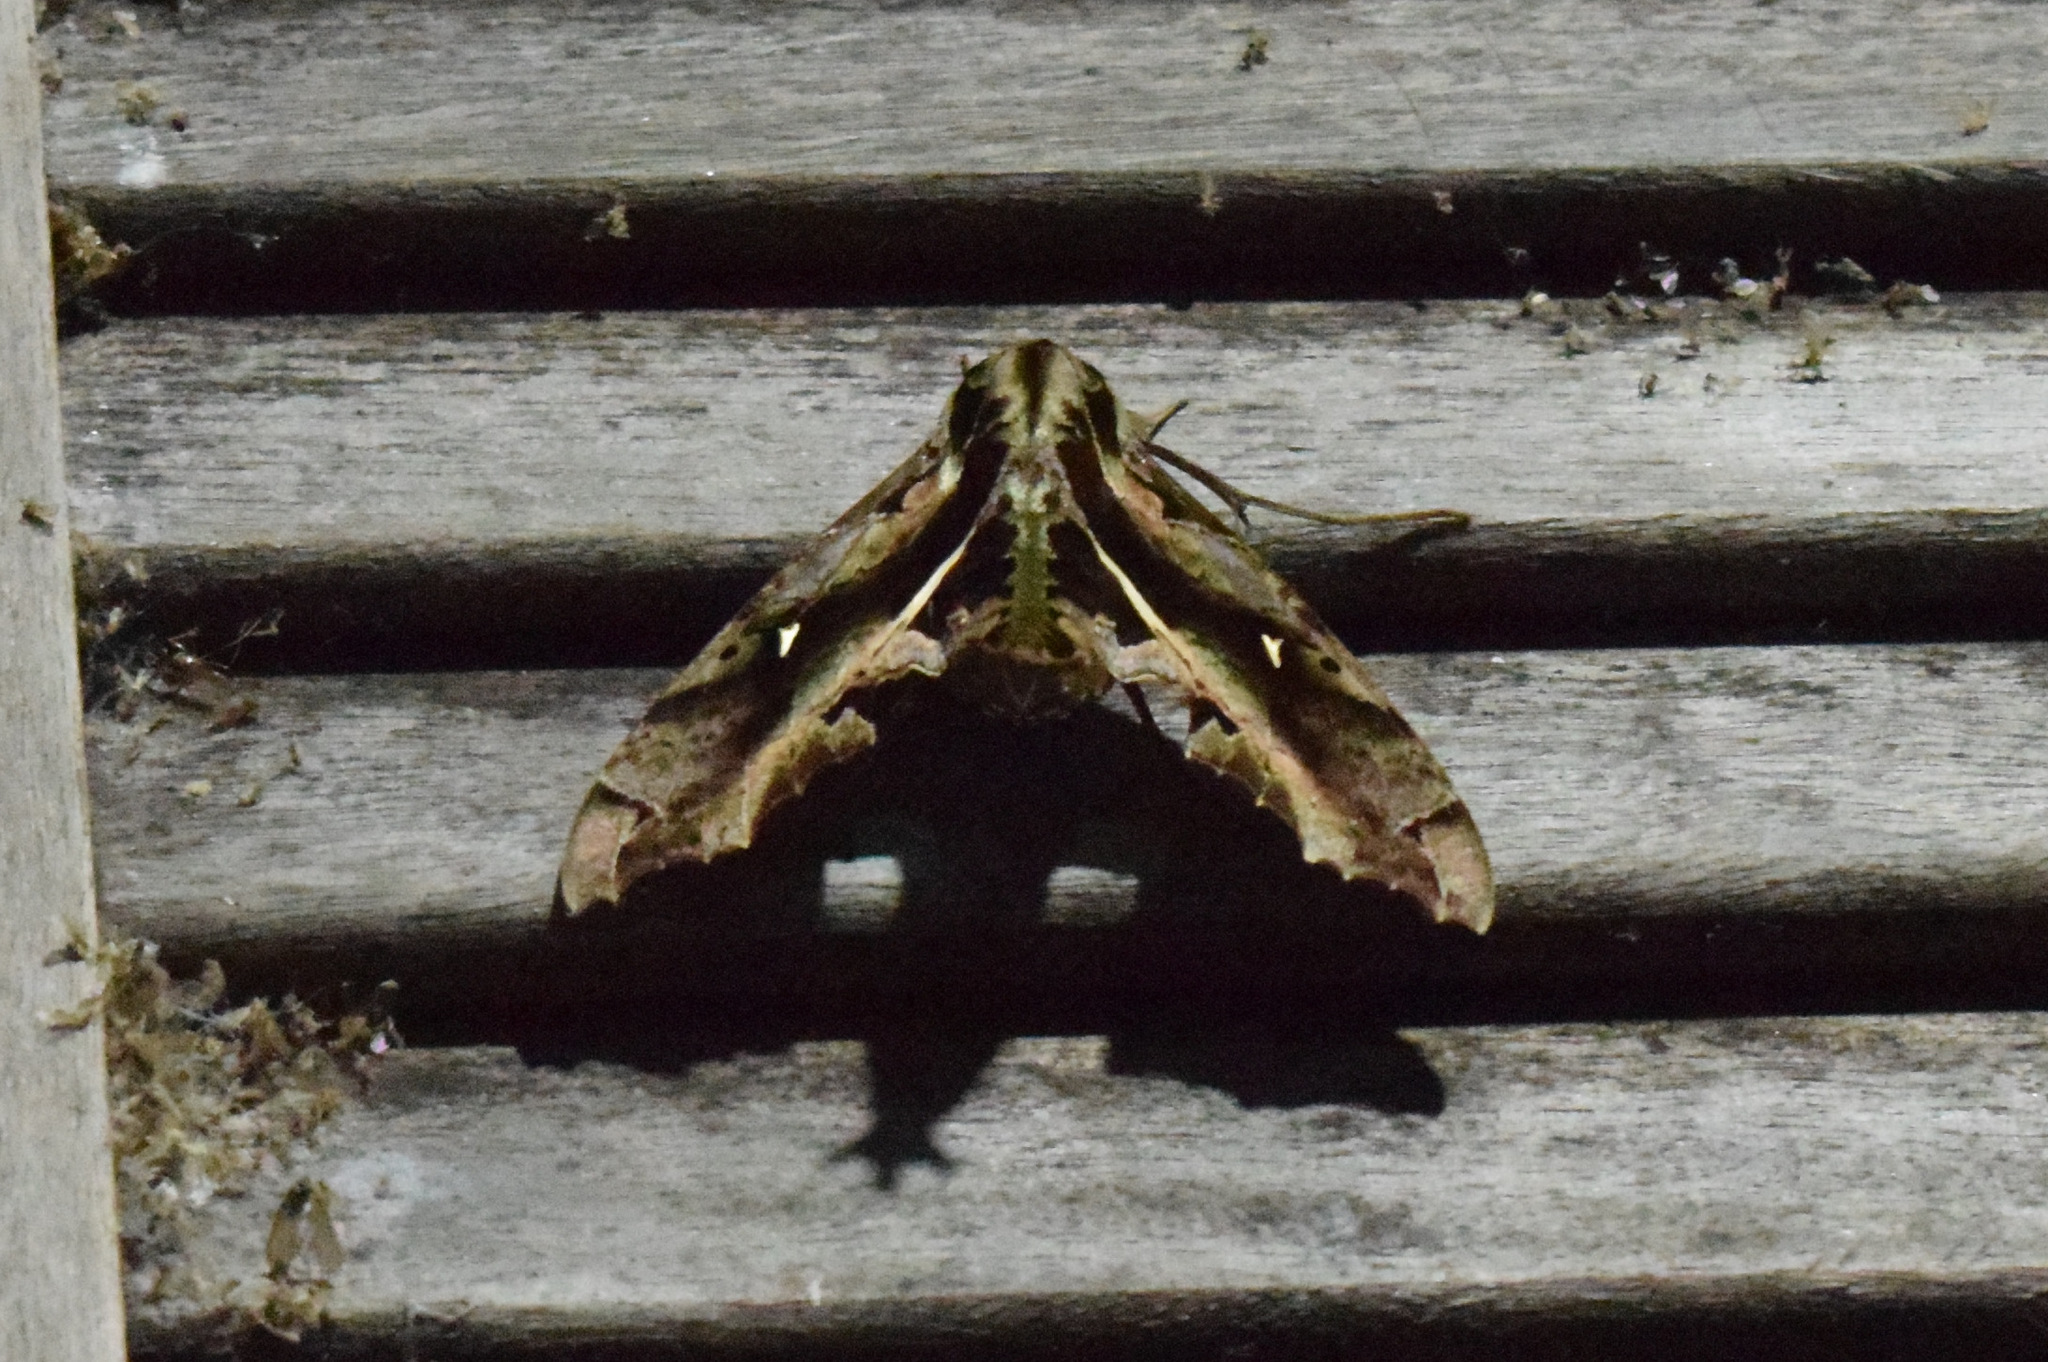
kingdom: Animalia
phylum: Arthropoda
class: Insecta
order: Lepidoptera
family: Sphingidae
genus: Hemeroplanes
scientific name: Hemeroplanes ornatus
